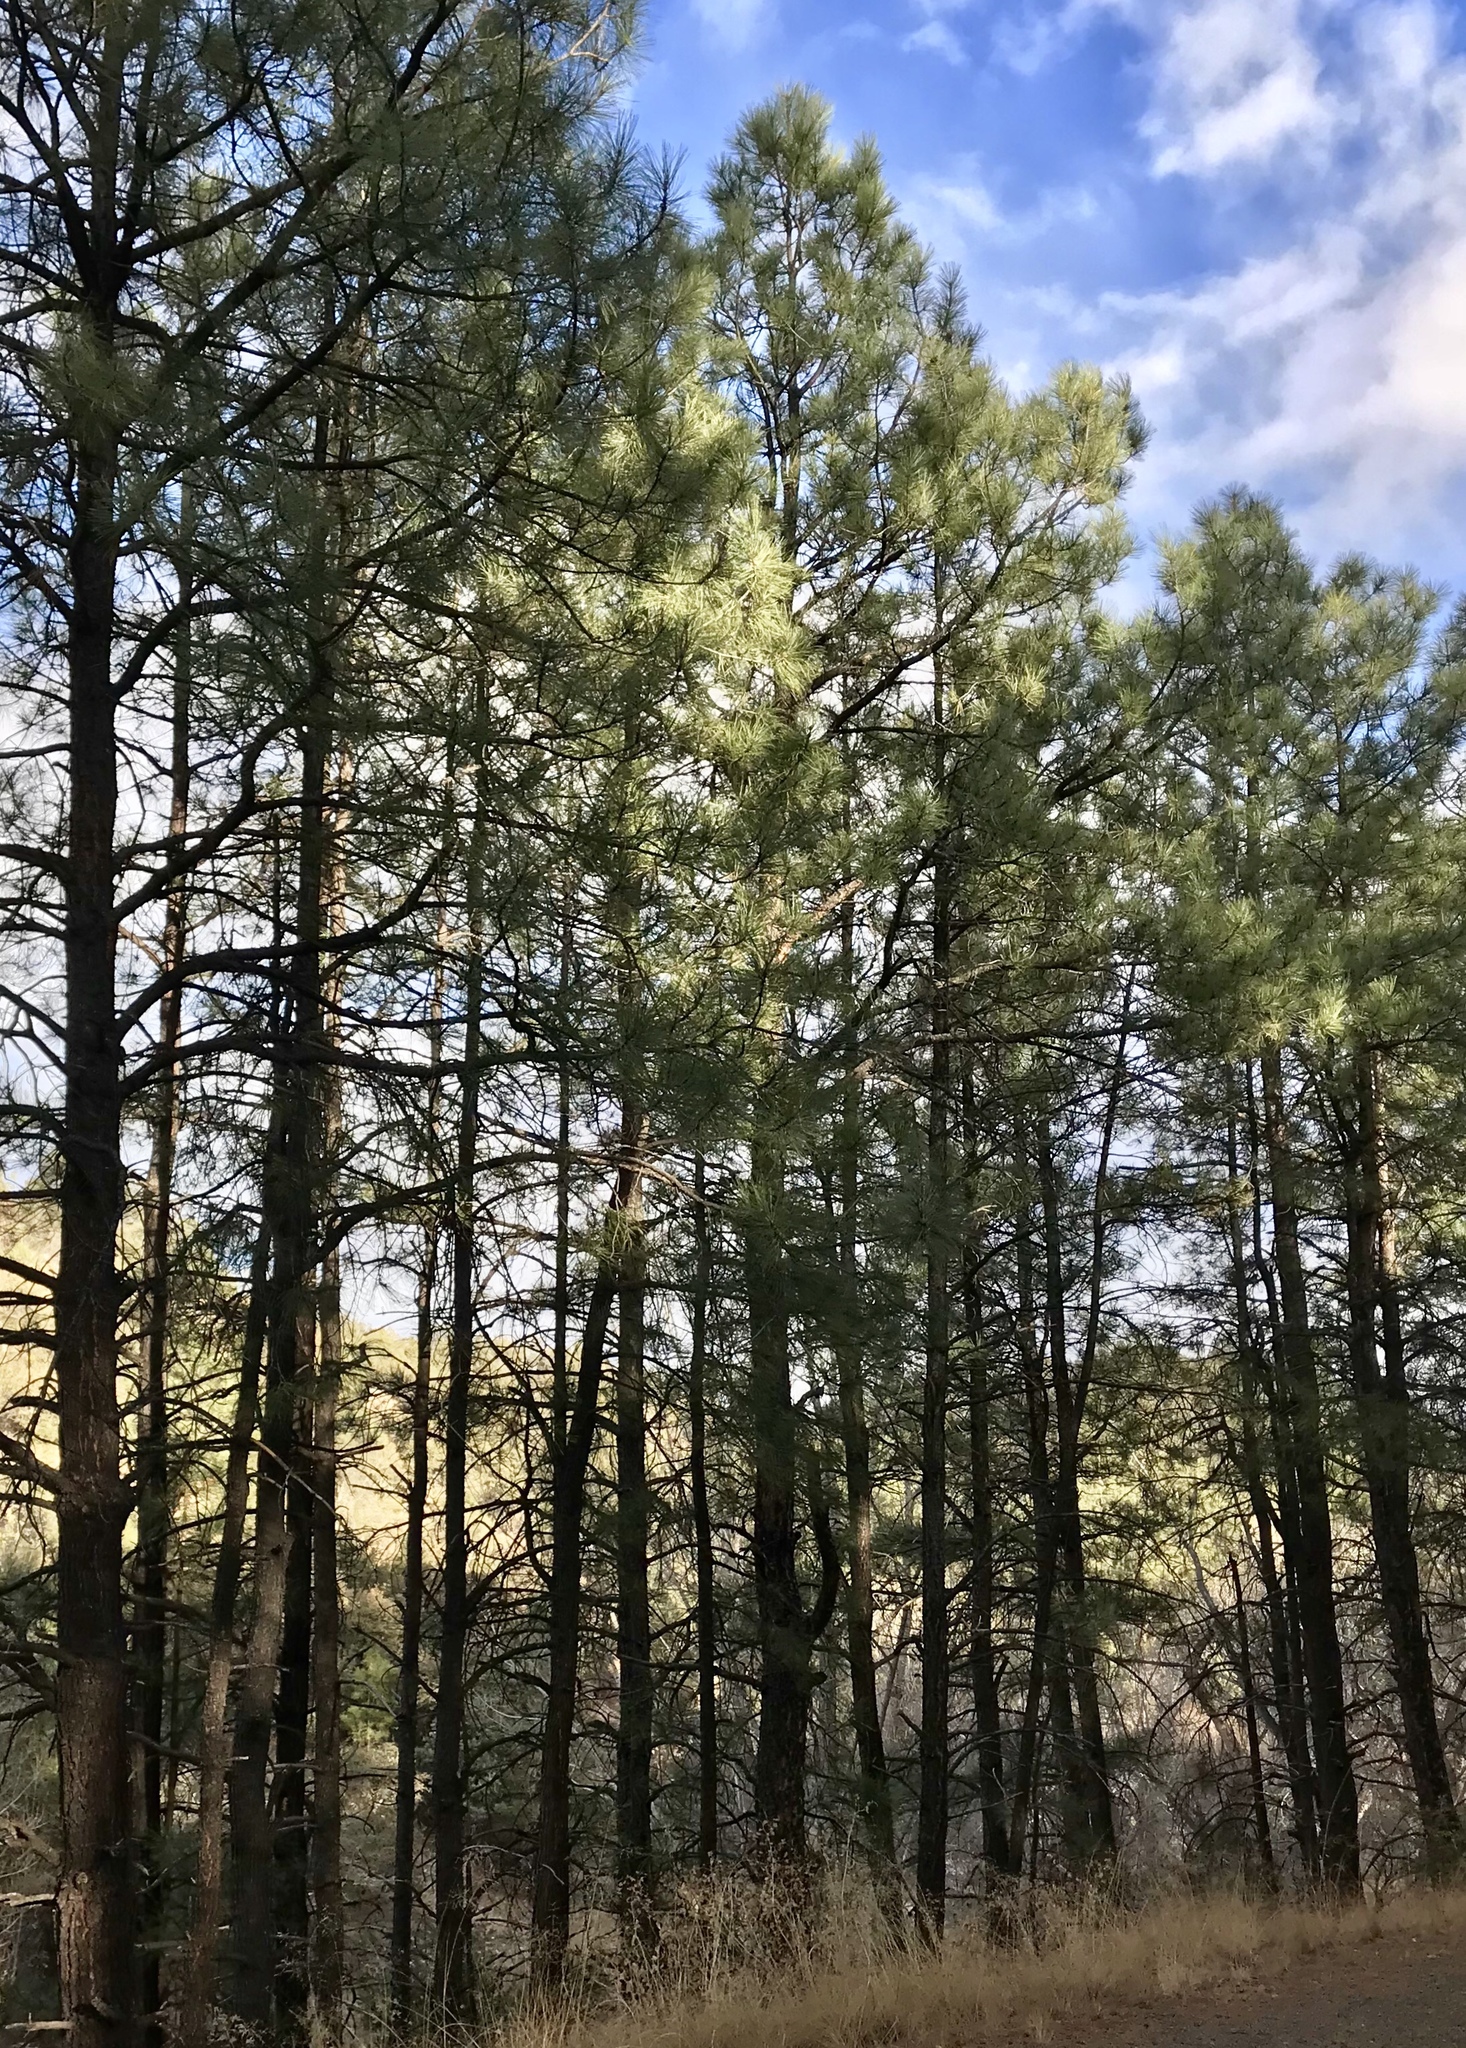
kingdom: Plantae
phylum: Tracheophyta
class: Pinopsida
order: Pinales
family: Pinaceae
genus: Pinus
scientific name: Pinus ponderosa
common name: Western yellow-pine
